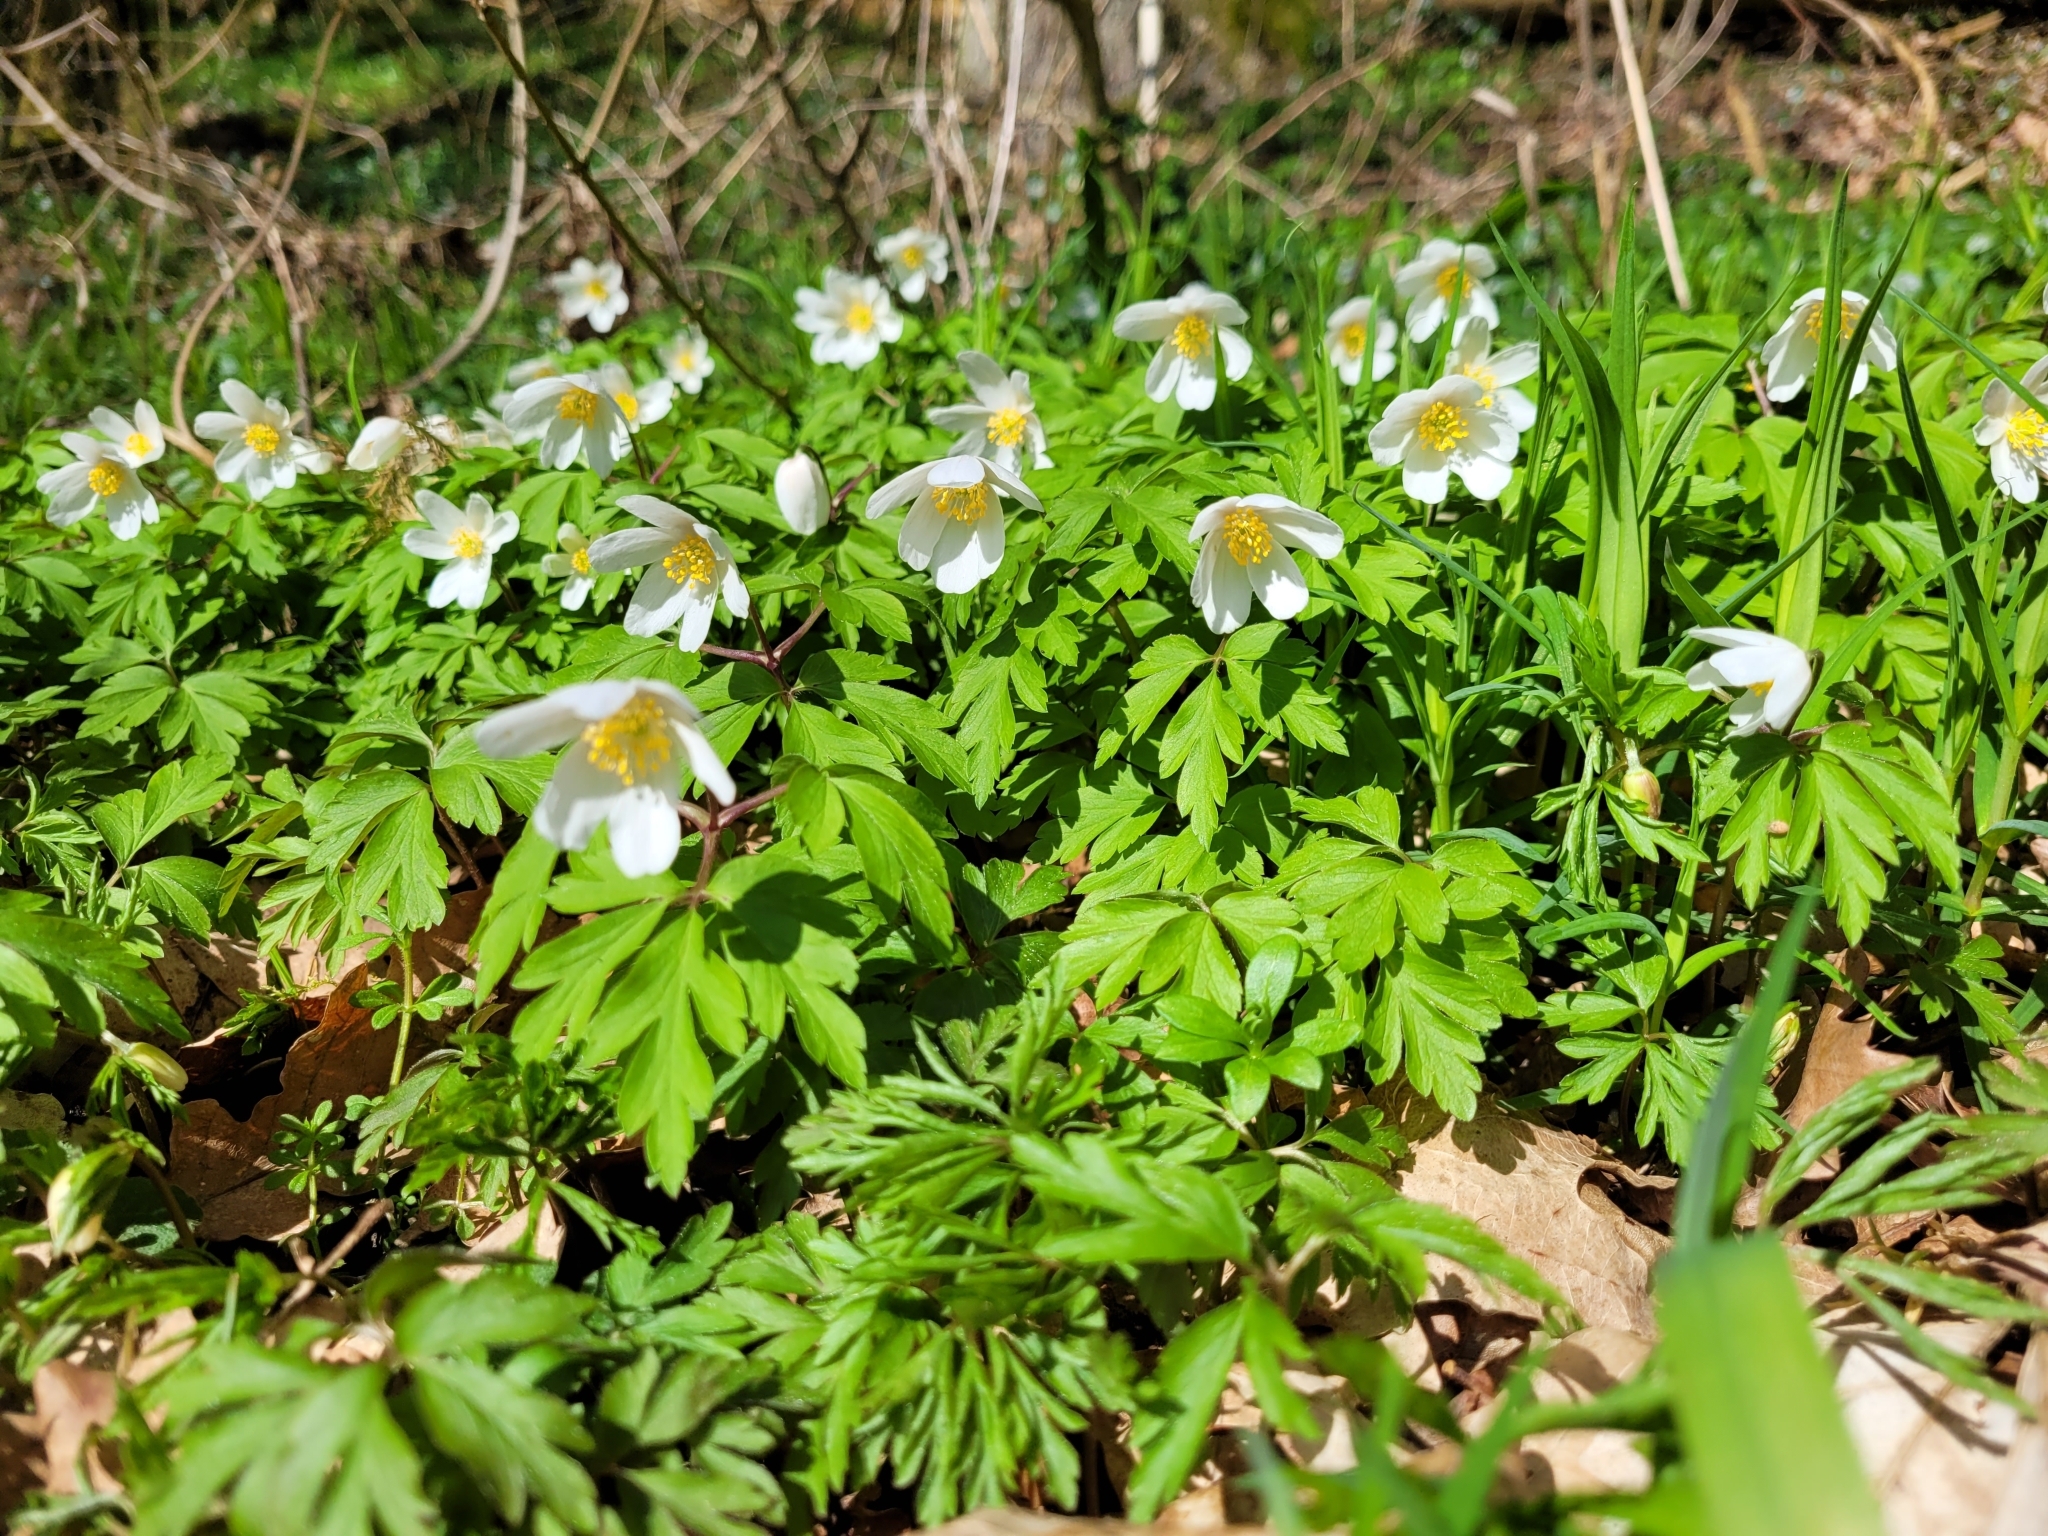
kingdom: Plantae
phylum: Tracheophyta
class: Magnoliopsida
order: Ranunculales
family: Ranunculaceae
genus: Anemone
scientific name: Anemone nemorosa
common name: Wood anemone
